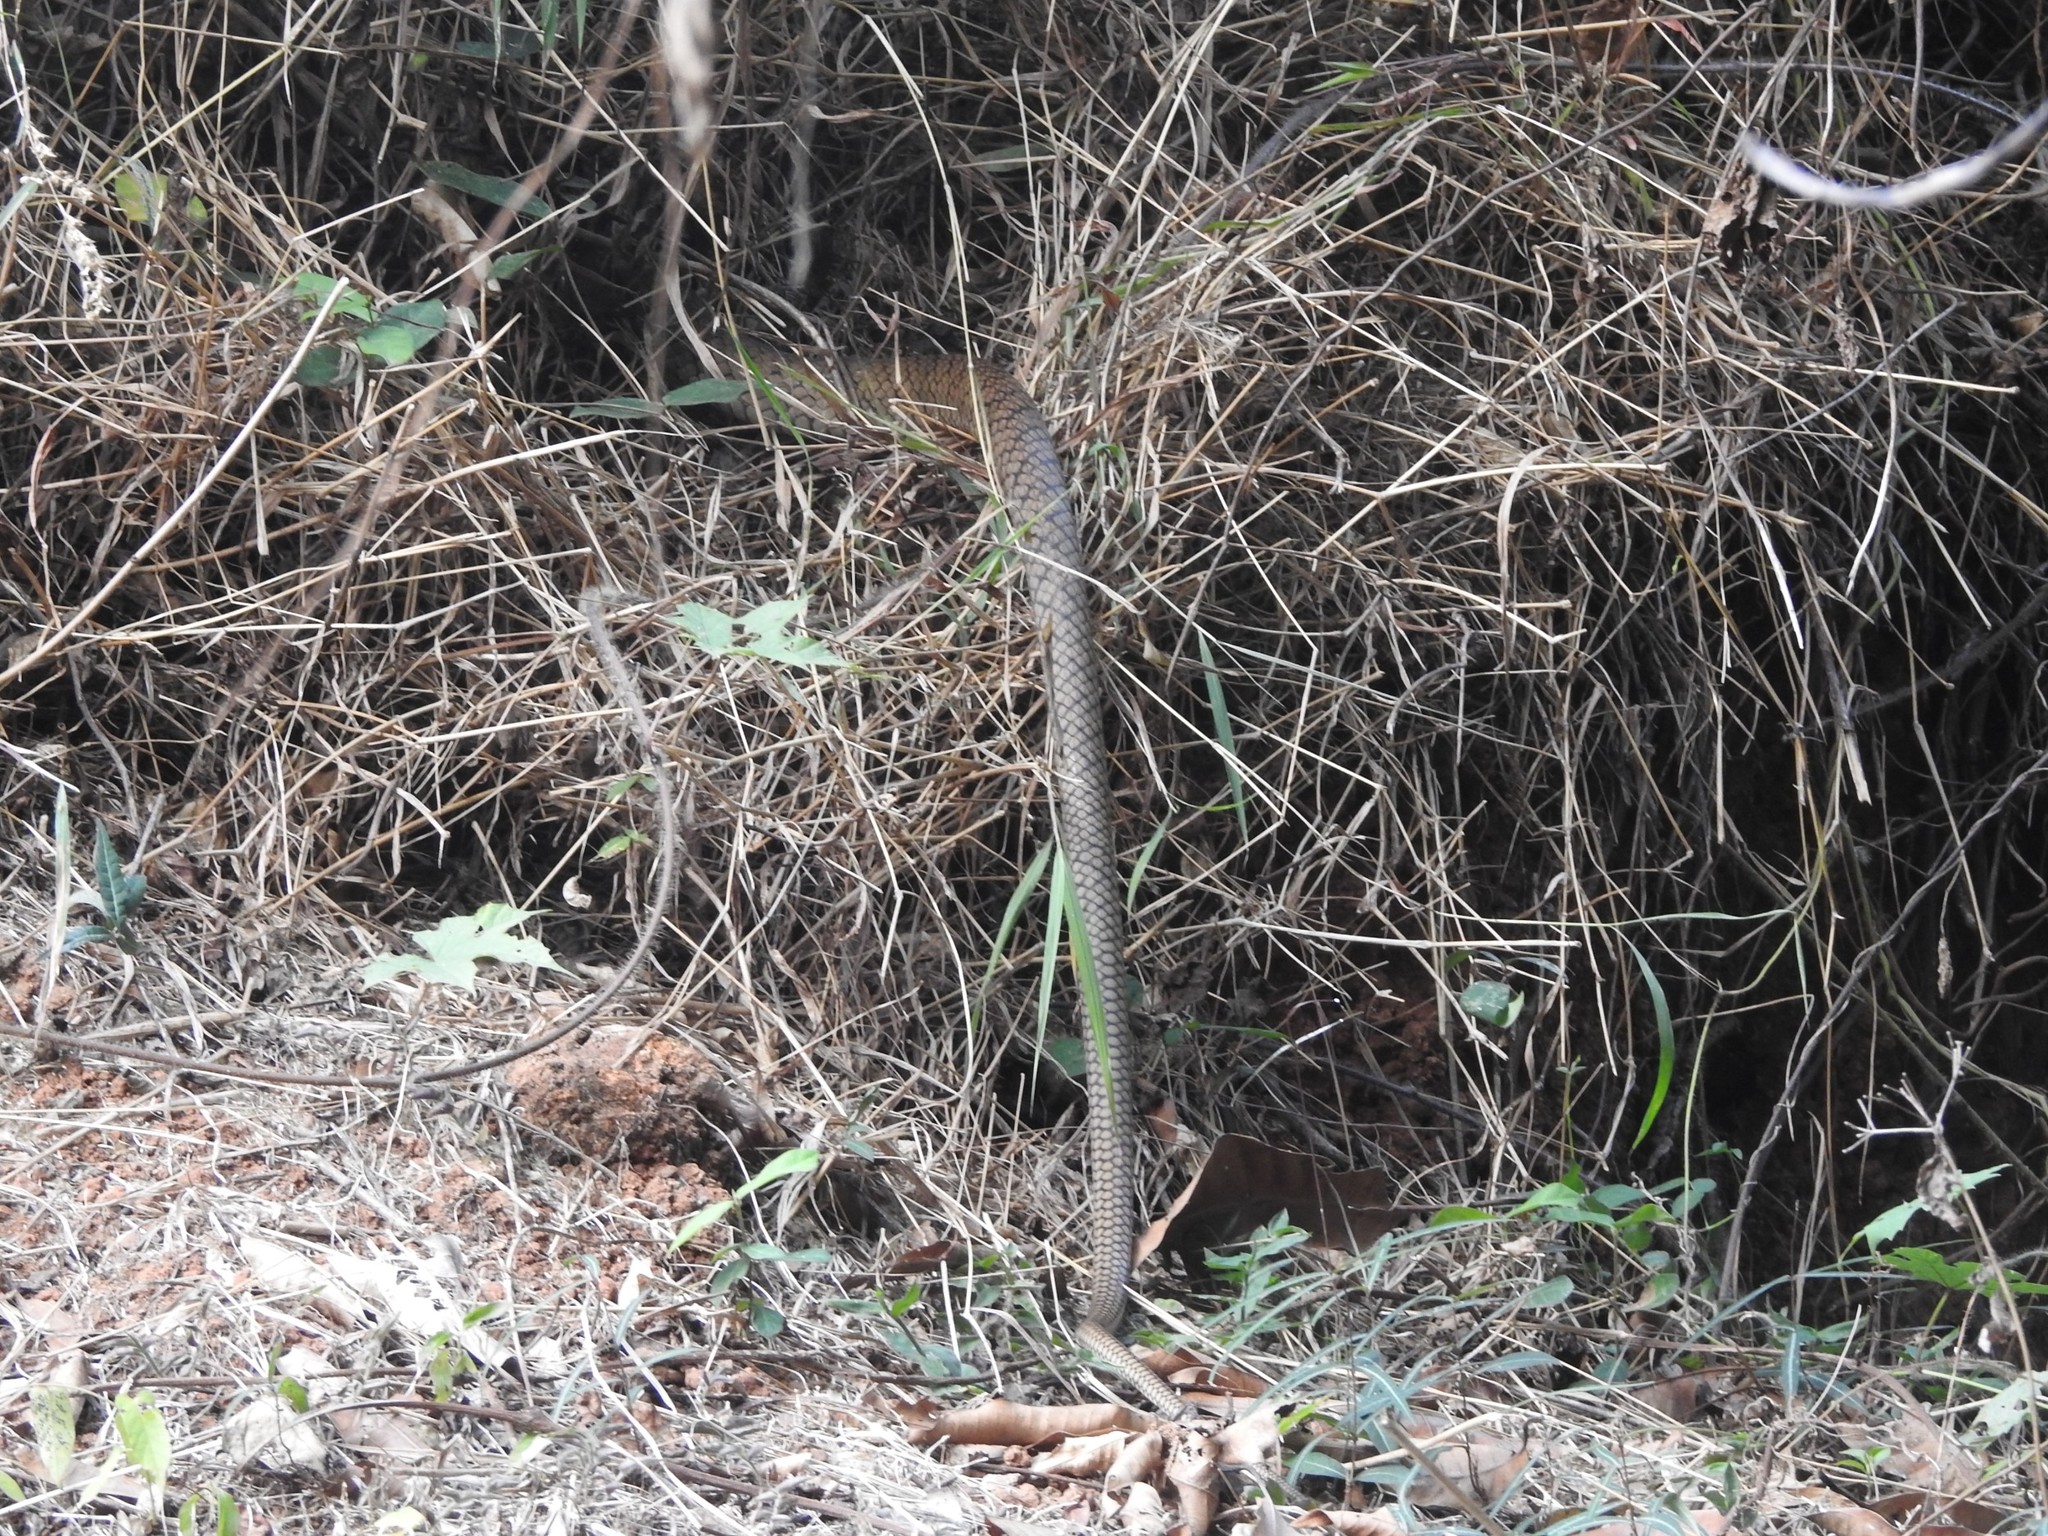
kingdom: Animalia
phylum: Chordata
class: Squamata
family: Colubridae
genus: Ptyas
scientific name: Ptyas mucosa
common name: Oriental ratsnake
